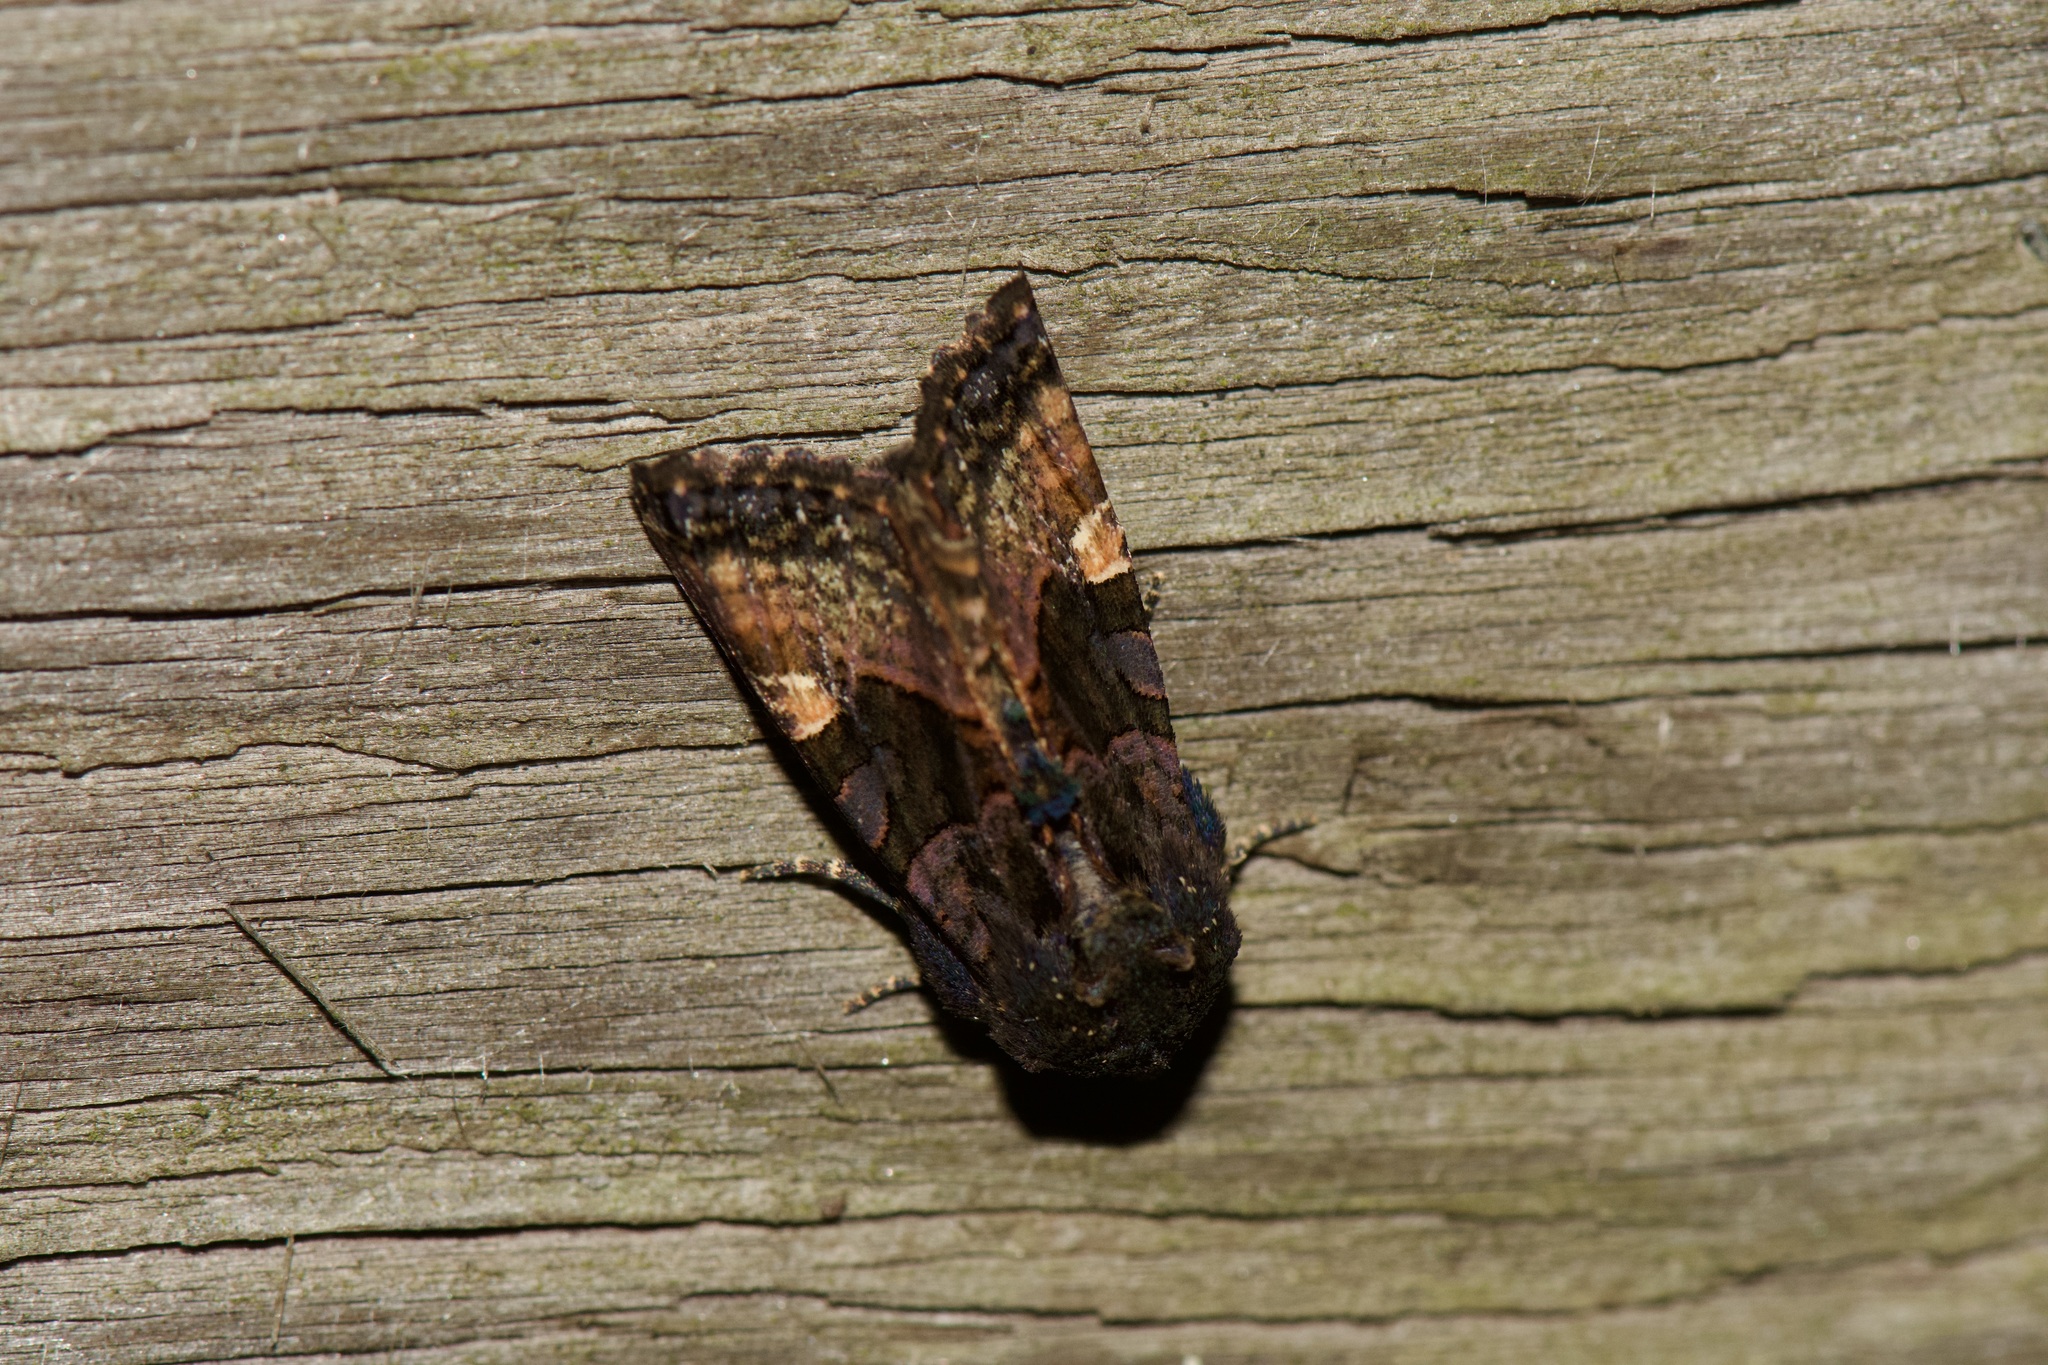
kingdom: Animalia
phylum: Arthropoda
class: Insecta
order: Lepidoptera
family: Noctuidae
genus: Euplexia
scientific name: Euplexia benesimilis
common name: American angle shades
